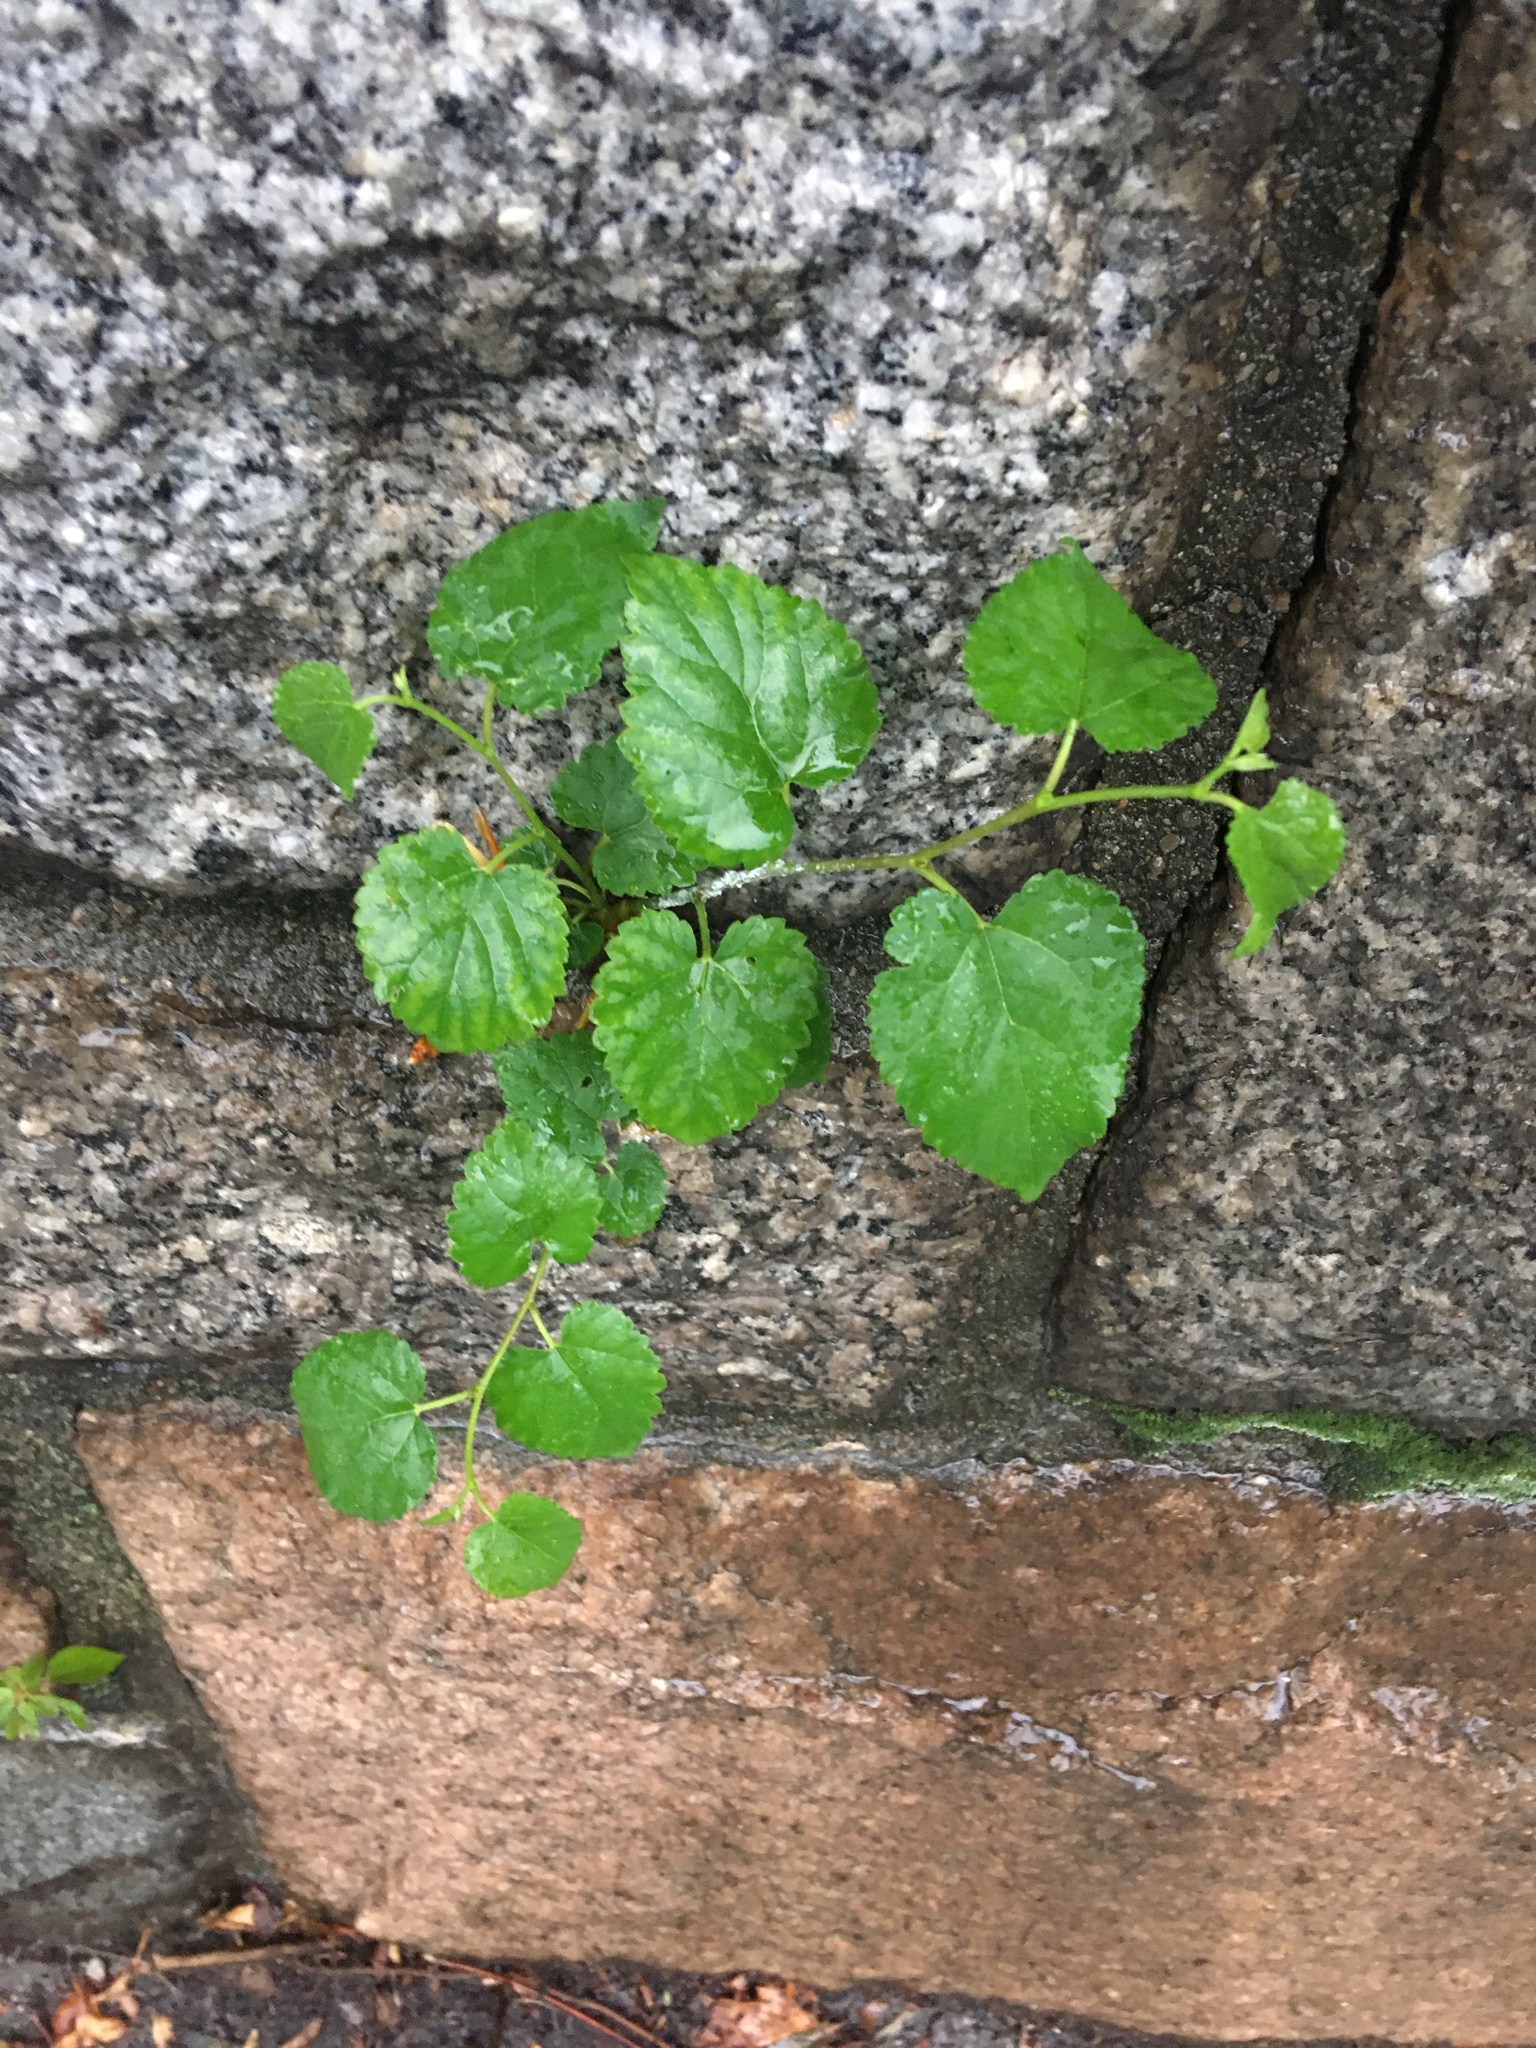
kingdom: Plantae
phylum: Tracheophyta
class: Magnoliopsida
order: Rosales
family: Moraceae
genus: Morus
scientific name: Morus alba
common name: White mulberry
